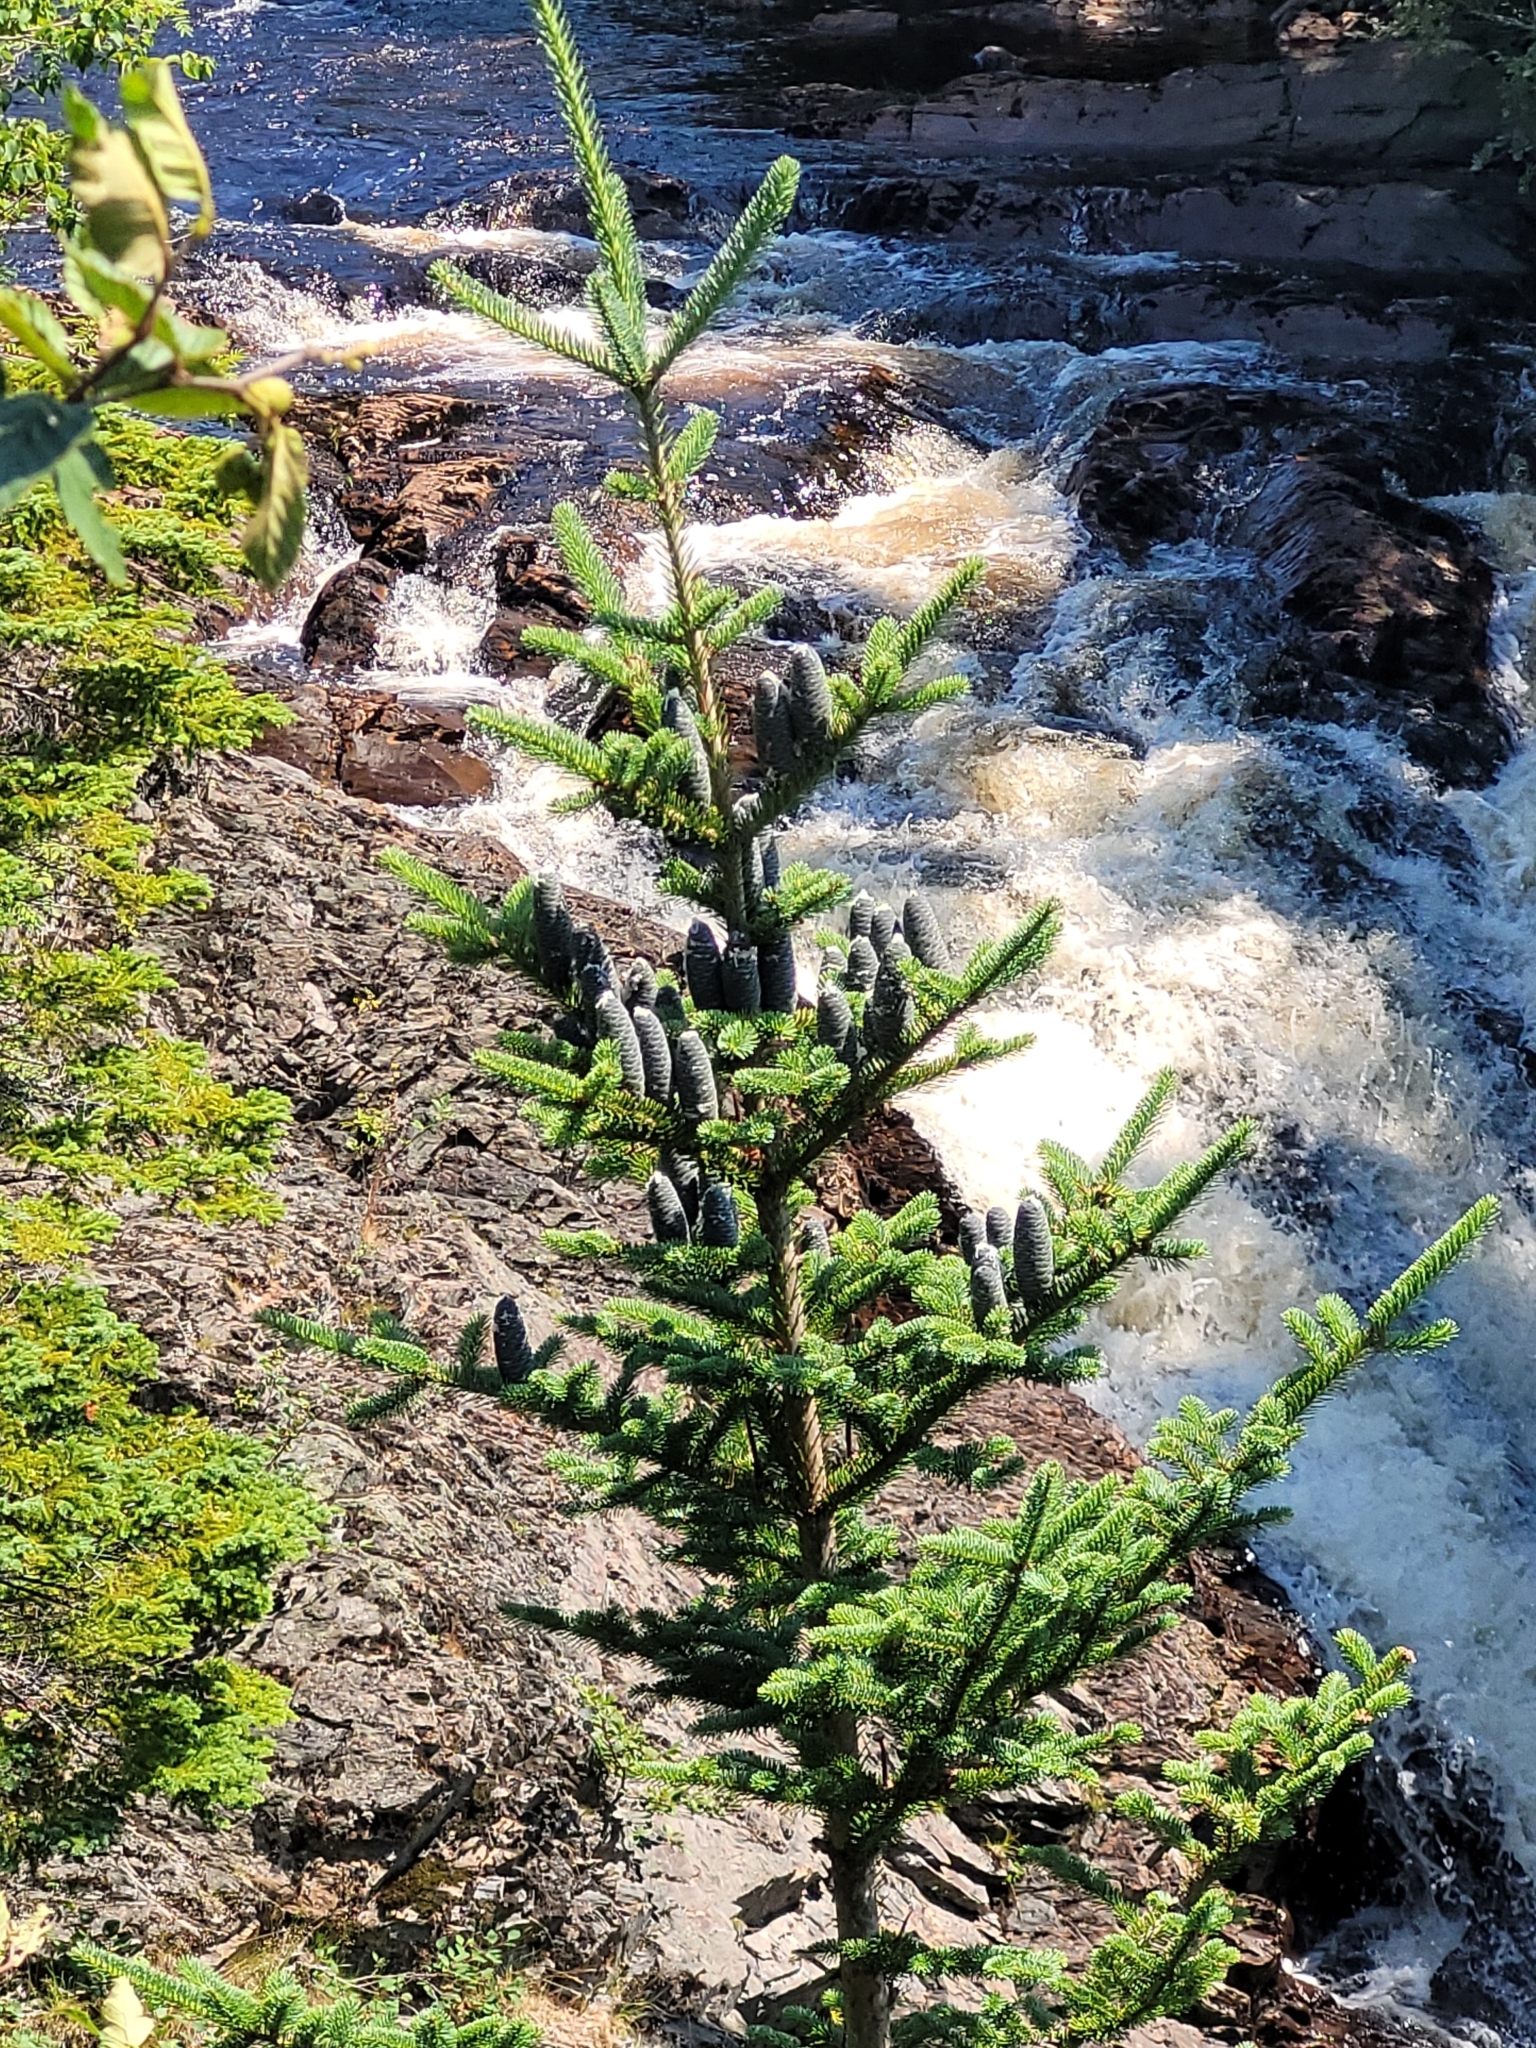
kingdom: Plantae
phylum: Tracheophyta
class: Pinopsida
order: Pinales
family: Pinaceae
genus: Abies
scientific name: Abies balsamea
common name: Balsam fir
